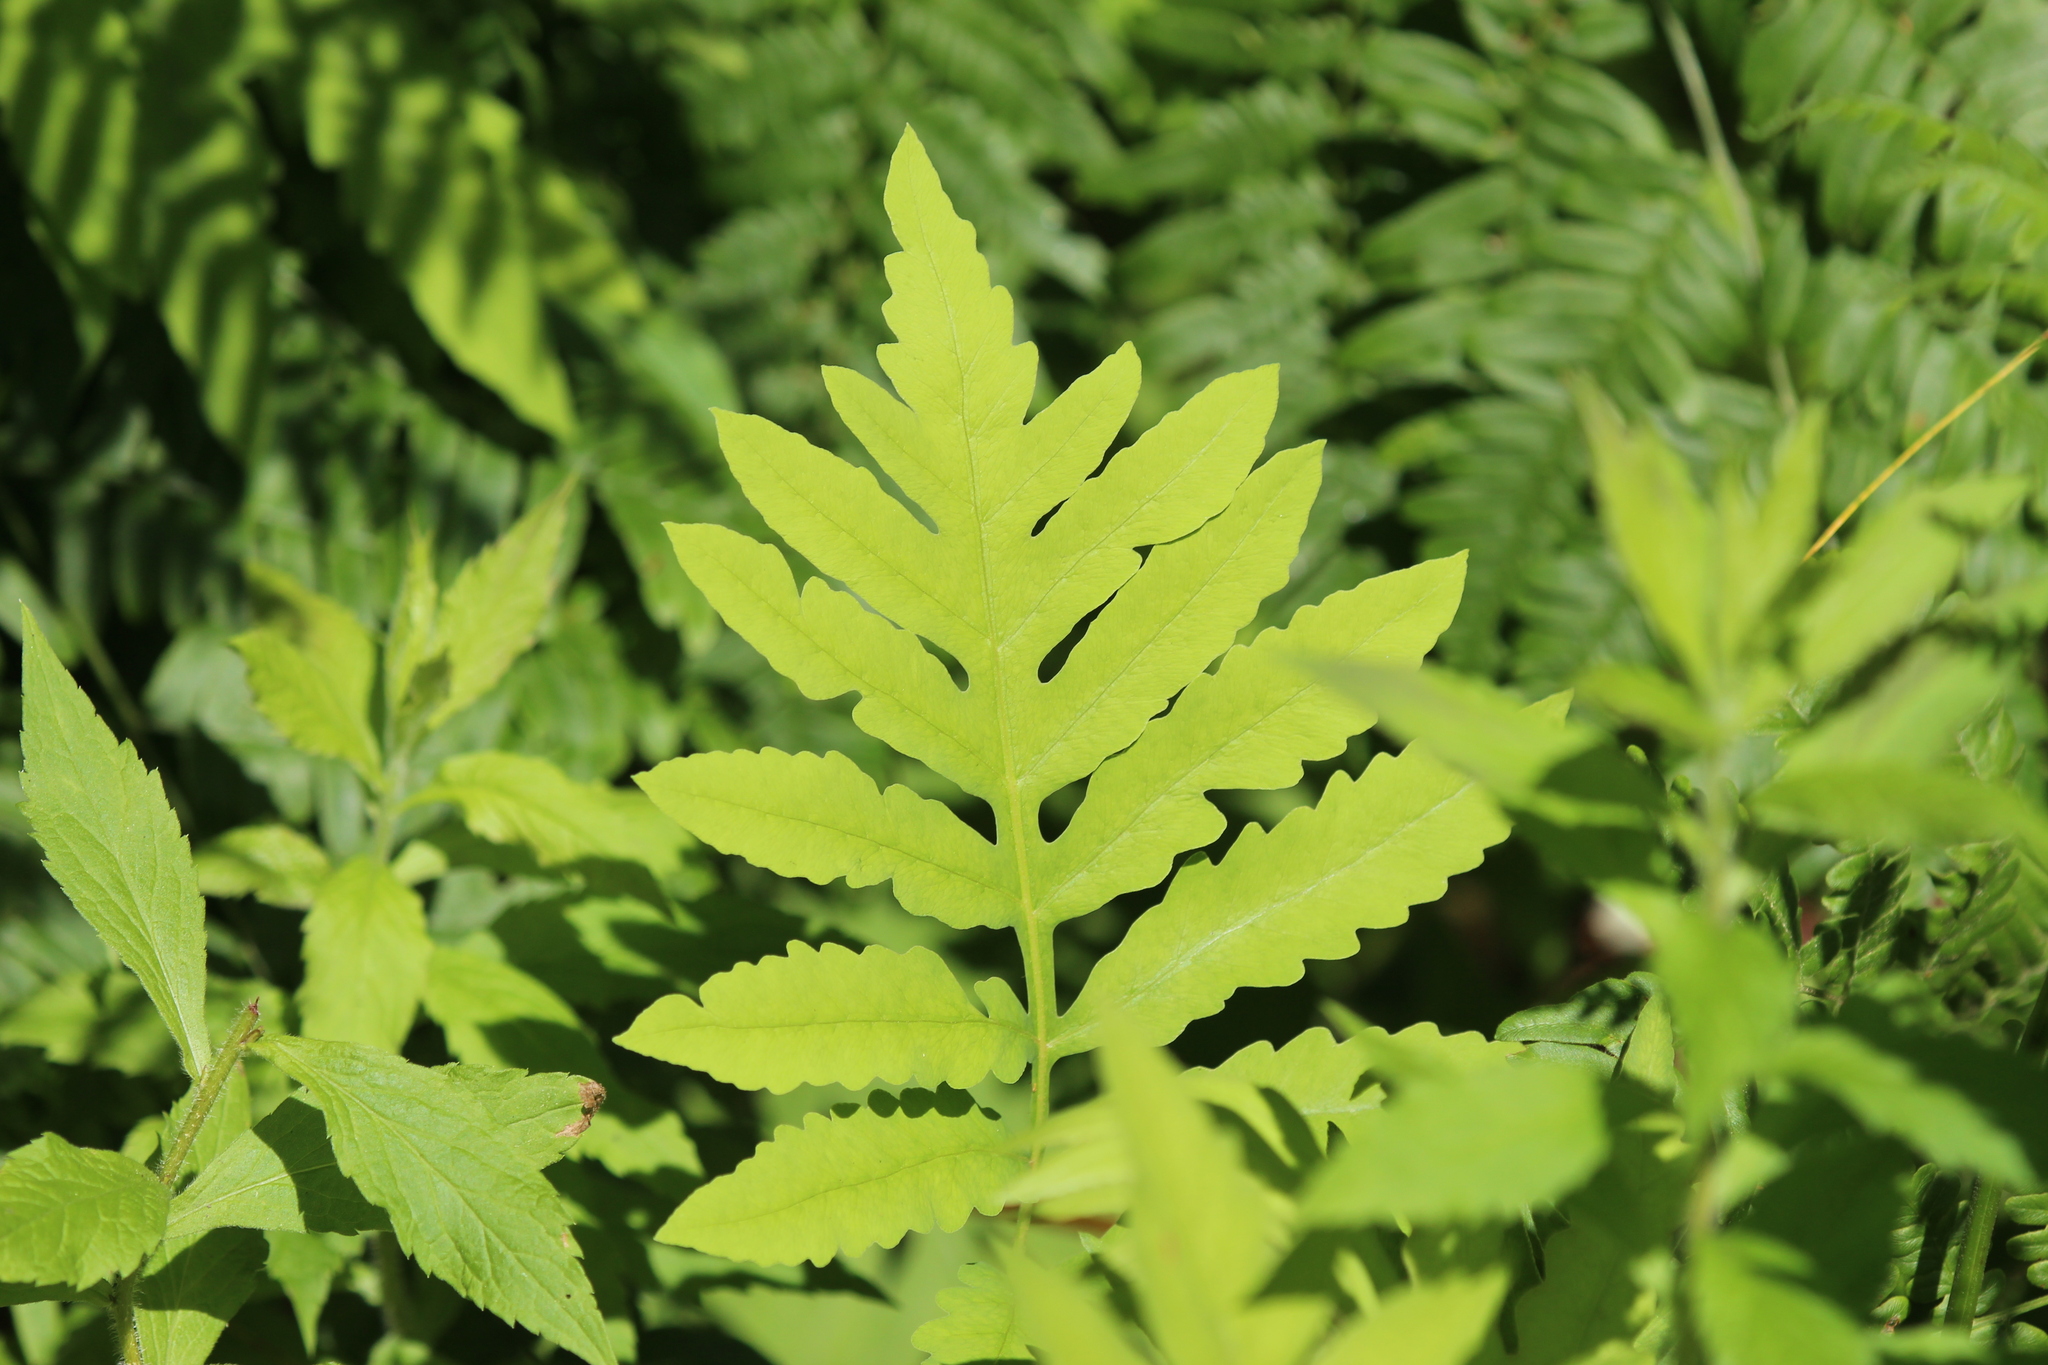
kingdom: Plantae
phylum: Tracheophyta
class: Polypodiopsida
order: Polypodiales
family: Onocleaceae
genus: Onoclea
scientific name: Onoclea sensibilis
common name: Sensitive fern
